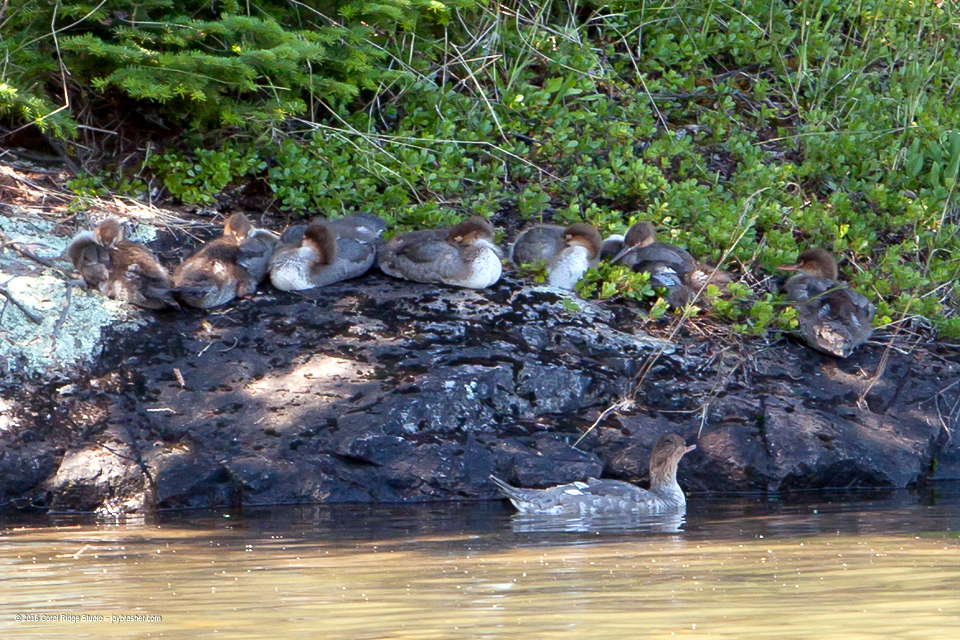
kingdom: Animalia
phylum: Chordata
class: Aves
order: Anseriformes
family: Anatidae
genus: Mergus
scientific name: Mergus serrator
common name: Red-breasted merganser
